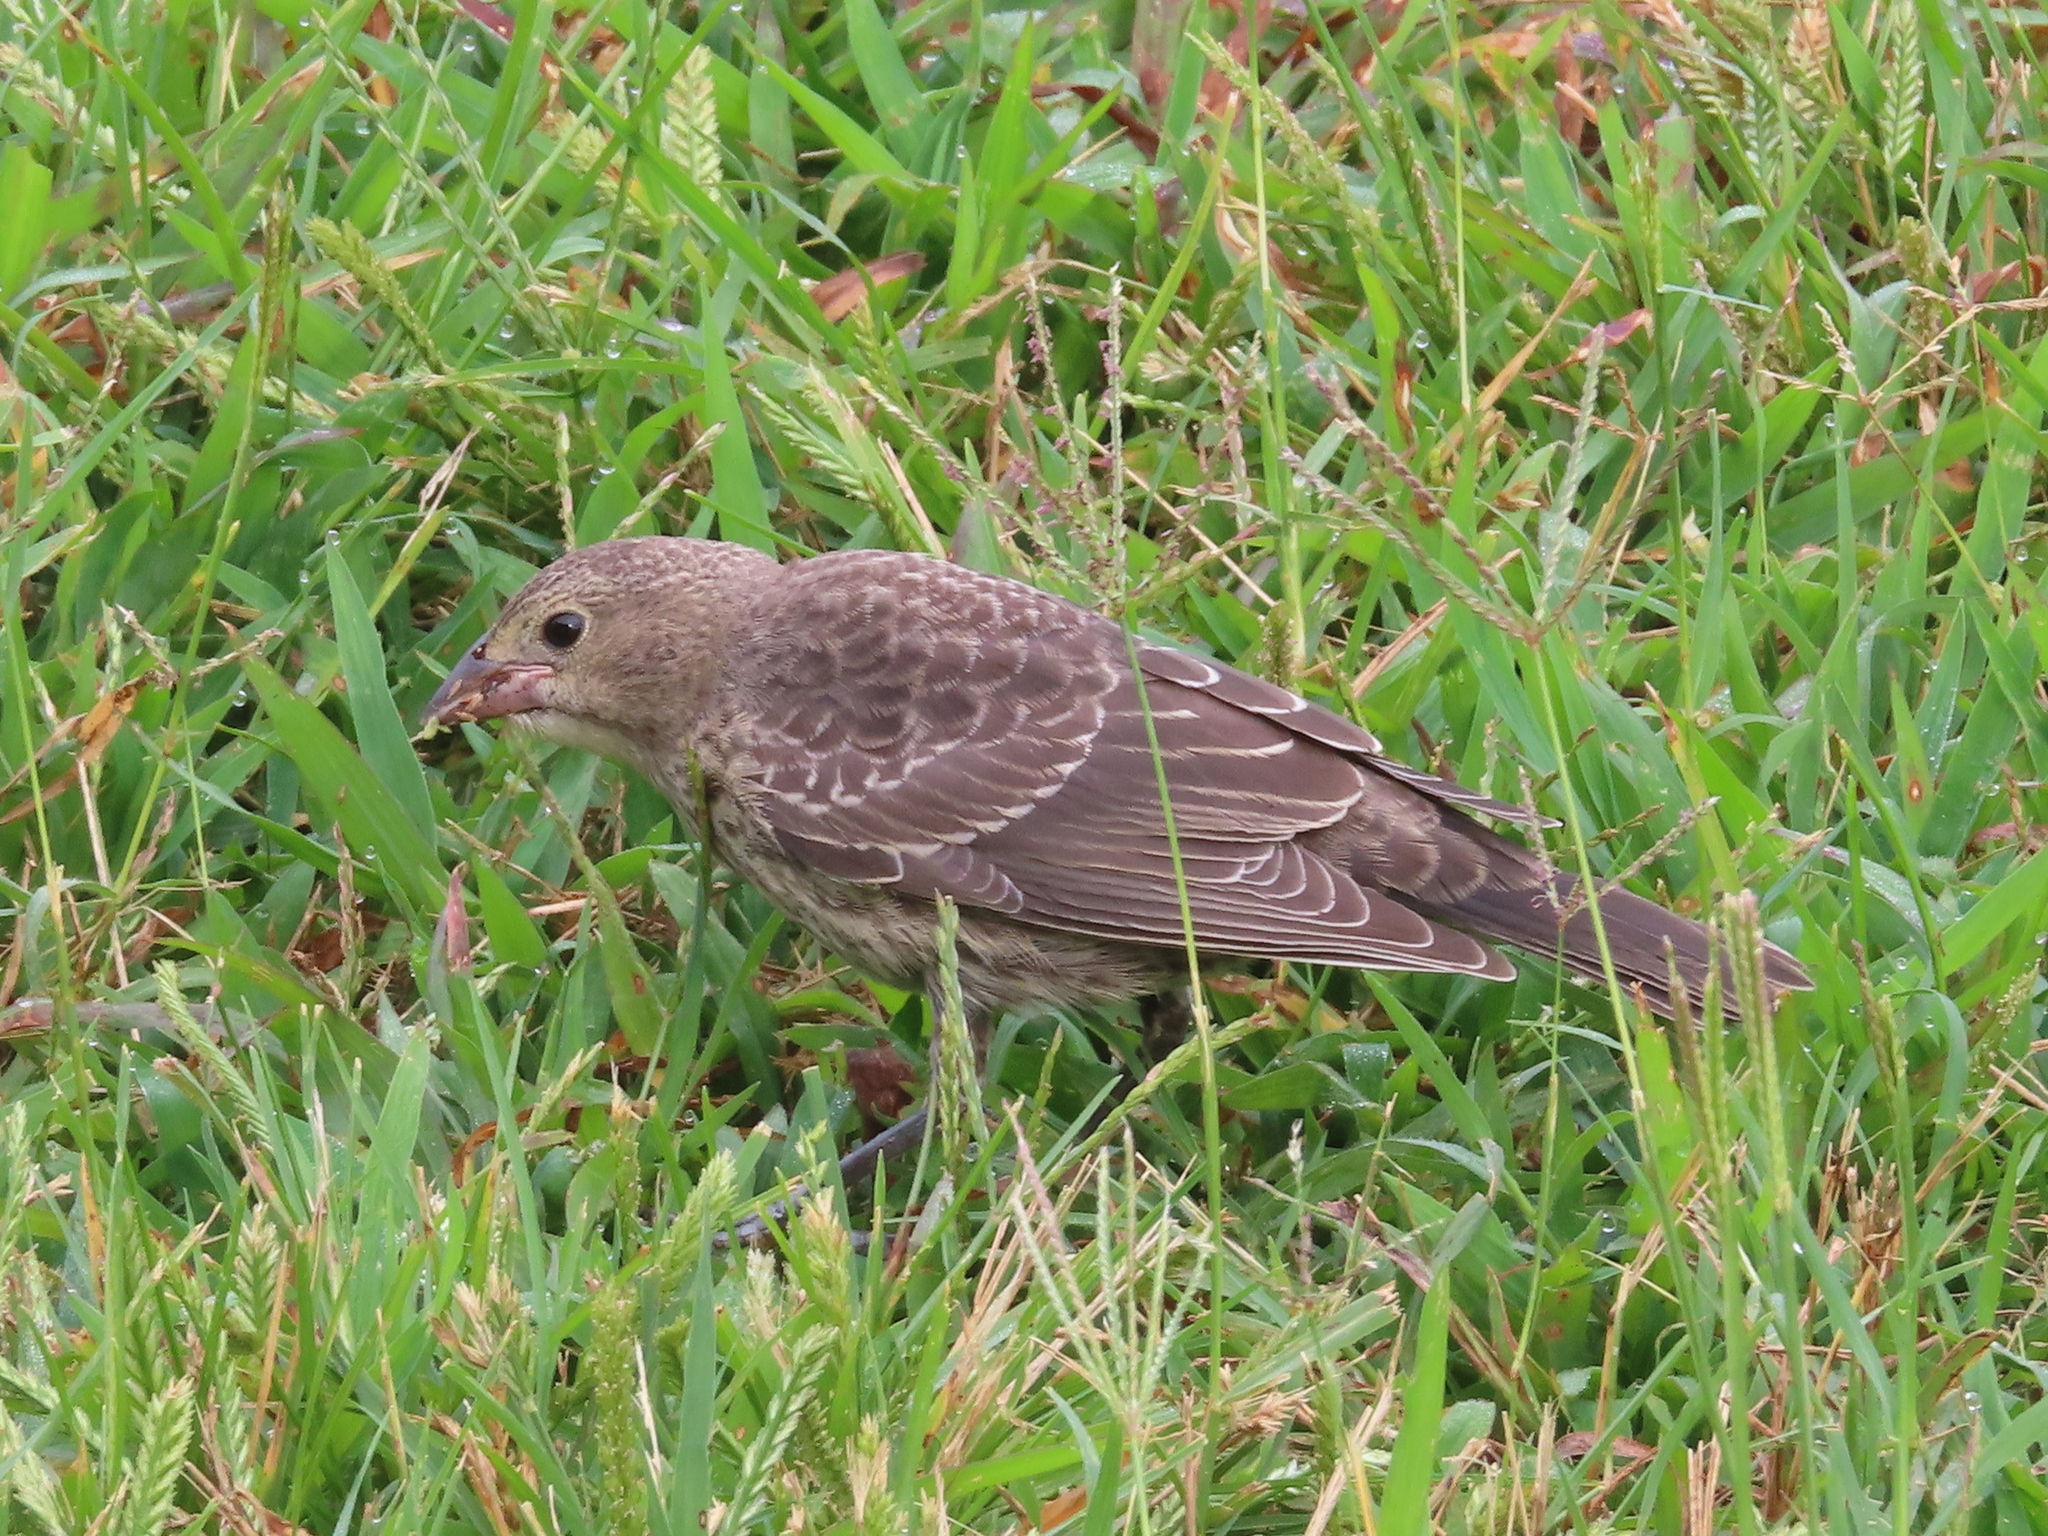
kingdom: Animalia
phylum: Chordata
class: Aves
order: Passeriformes
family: Icteridae
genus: Molothrus
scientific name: Molothrus ater
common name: Brown-headed cowbird
